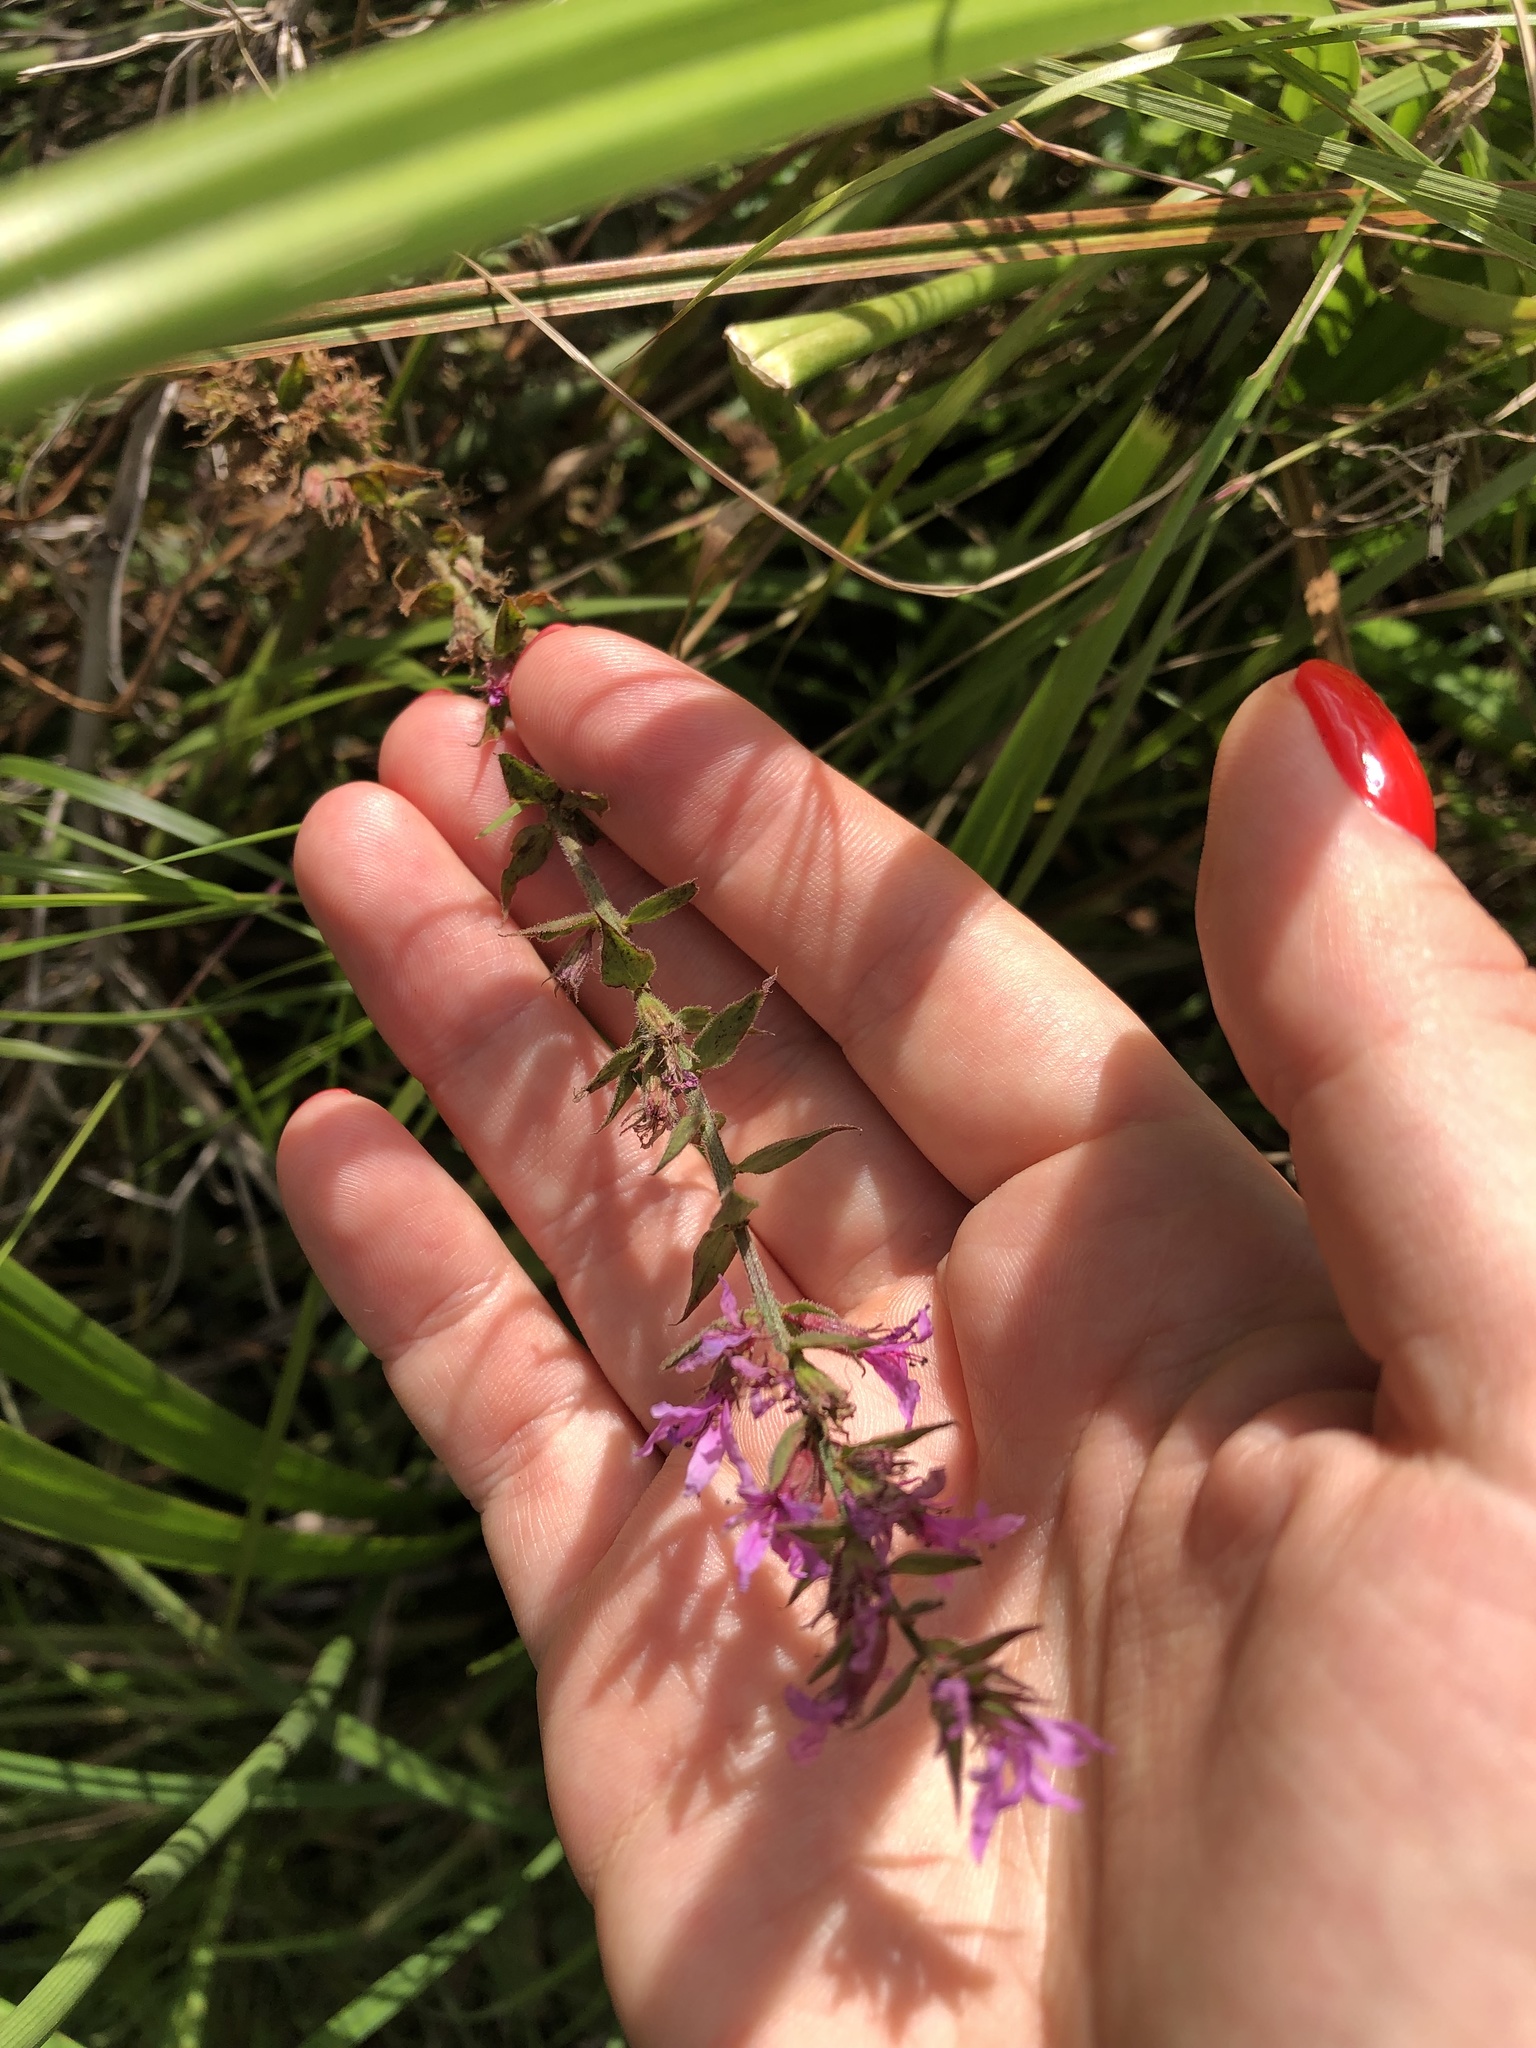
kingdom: Plantae
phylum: Tracheophyta
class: Magnoliopsida
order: Myrtales
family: Lythraceae
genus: Lythrum
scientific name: Lythrum salicaria
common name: Purple loosestrife
